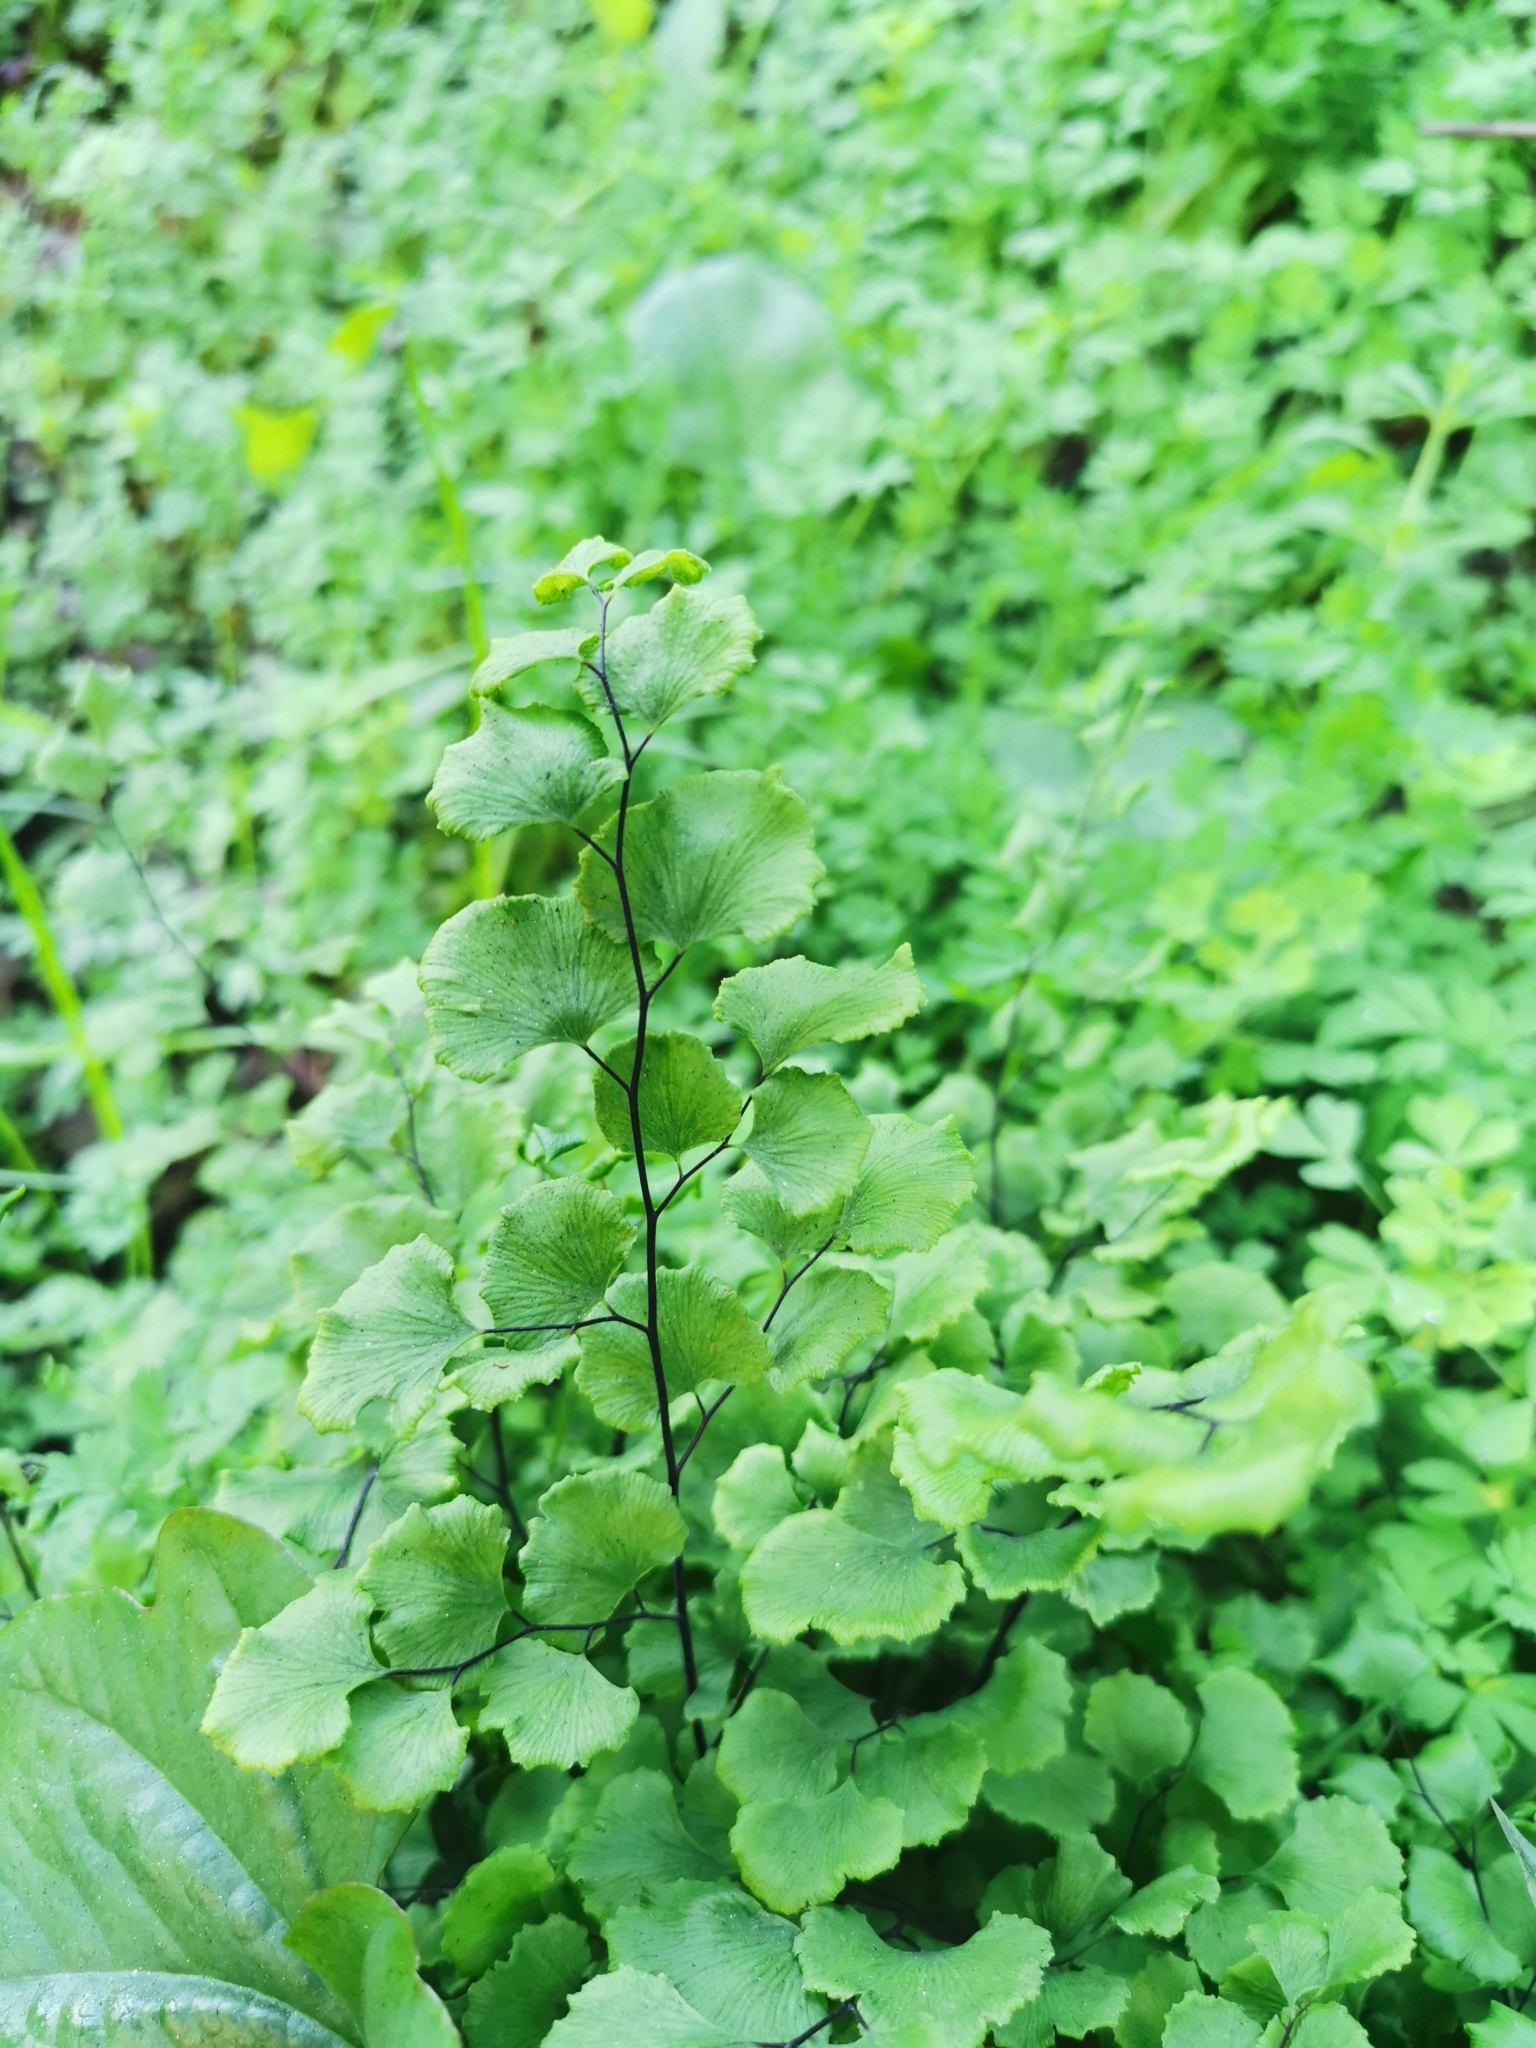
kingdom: Plantae
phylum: Tracheophyta
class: Polypodiopsida
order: Polypodiales
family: Pteridaceae
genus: Adiantum
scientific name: Adiantum chilense
